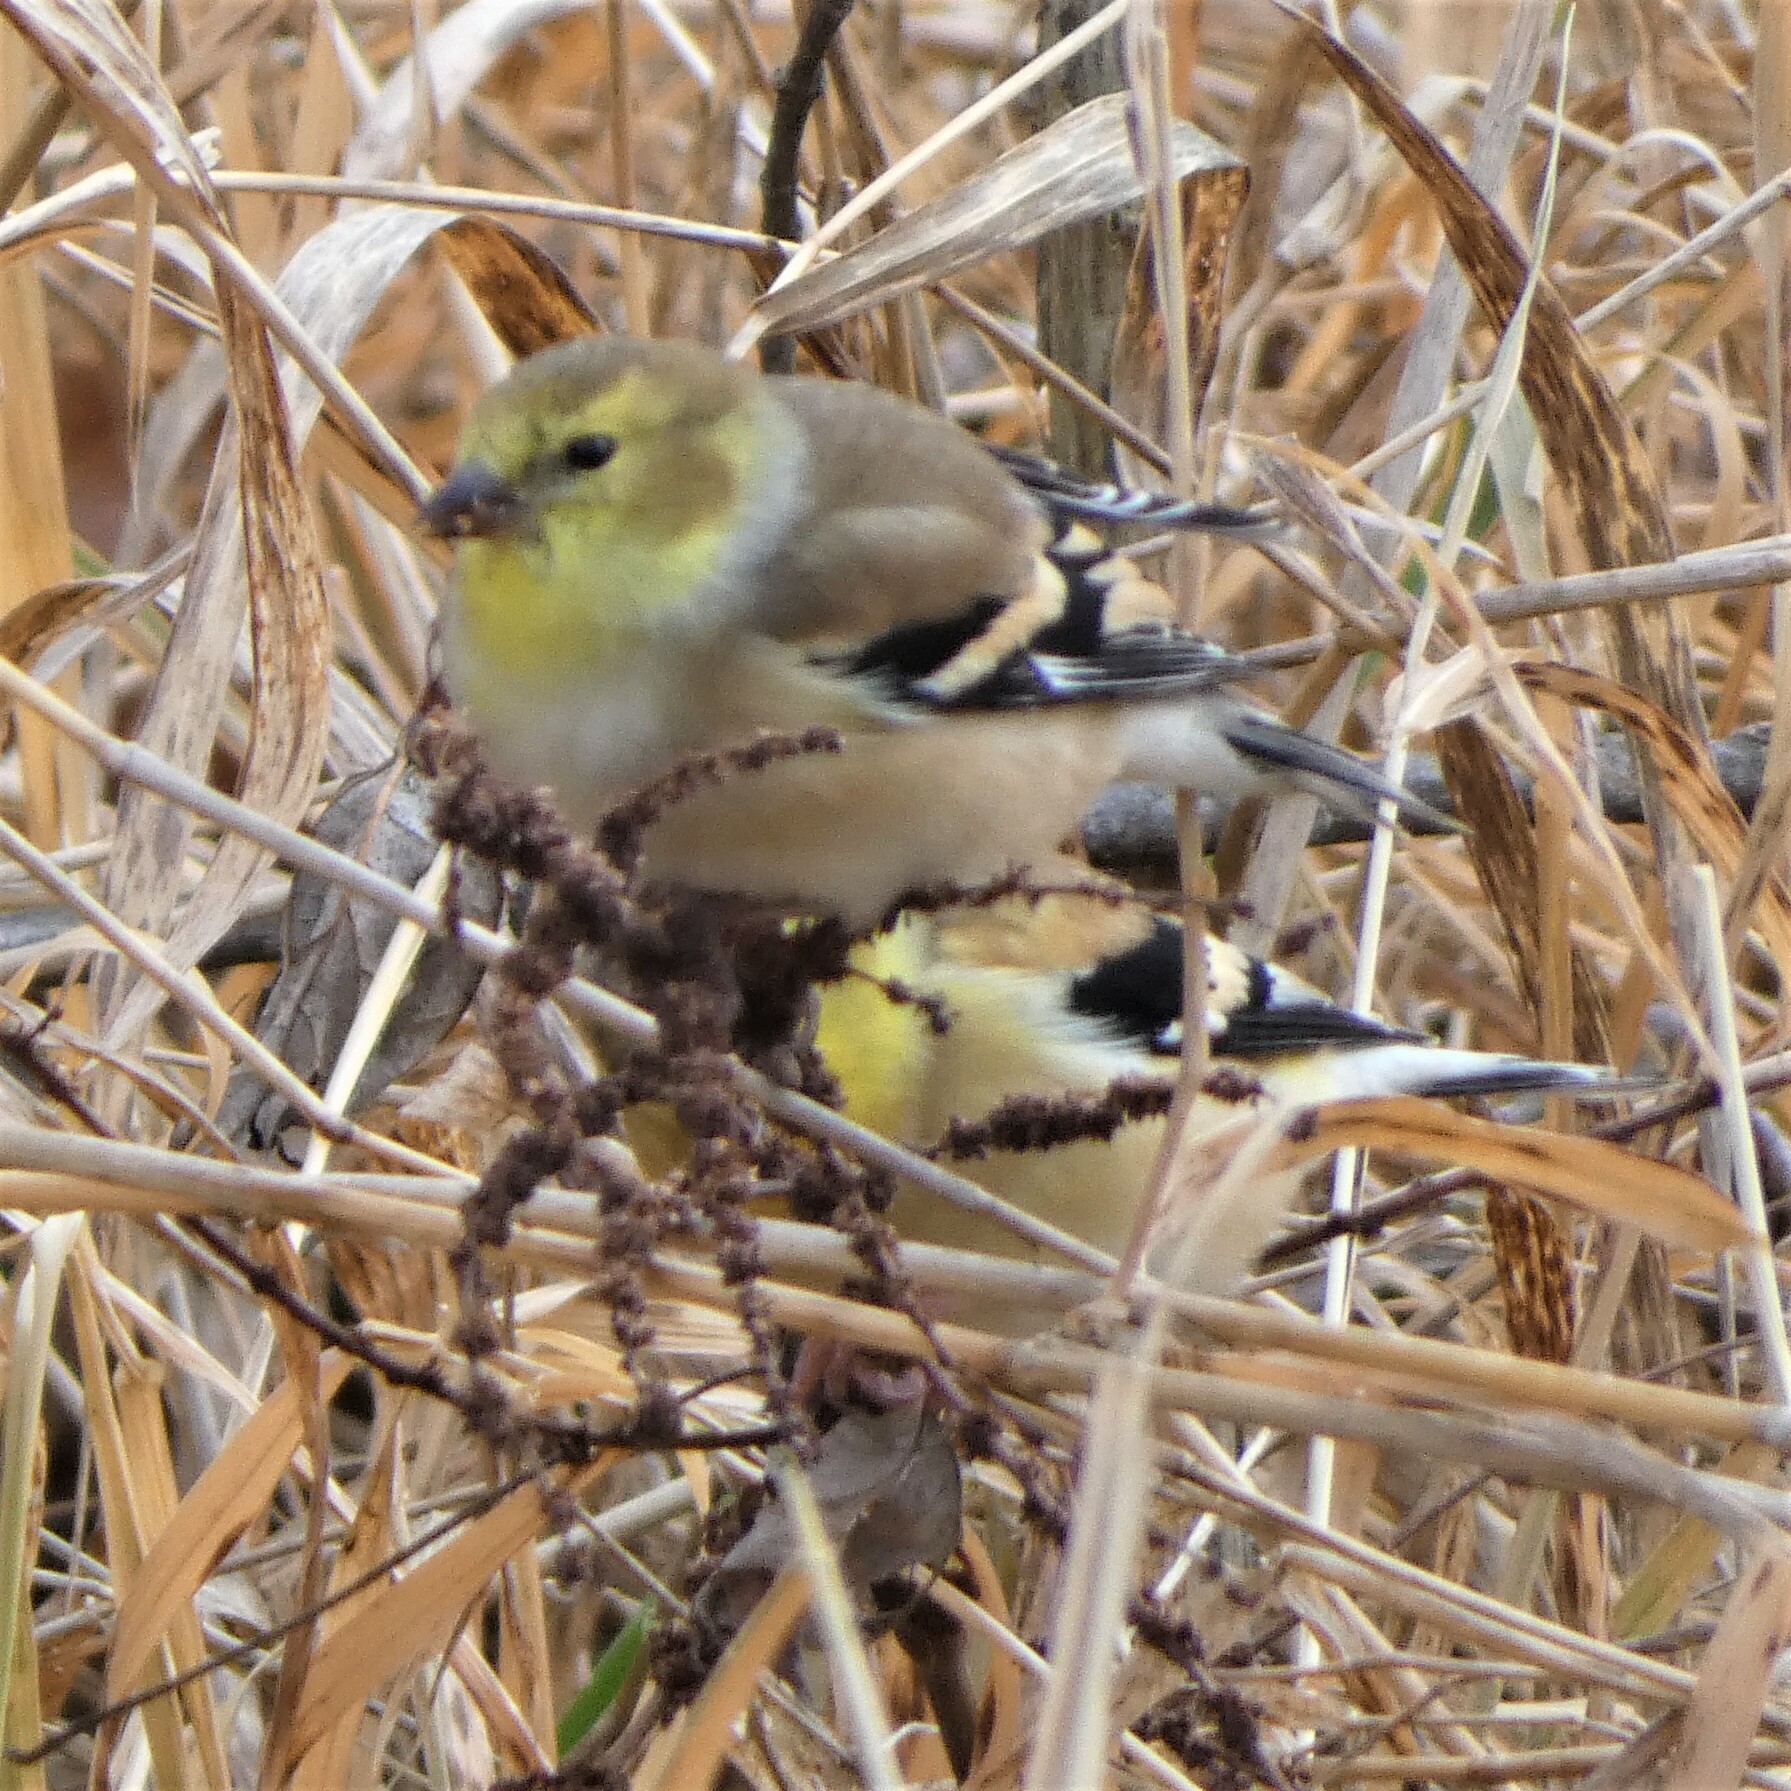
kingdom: Animalia
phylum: Chordata
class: Aves
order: Passeriformes
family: Fringillidae
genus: Spinus
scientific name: Spinus tristis
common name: American goldfinch
